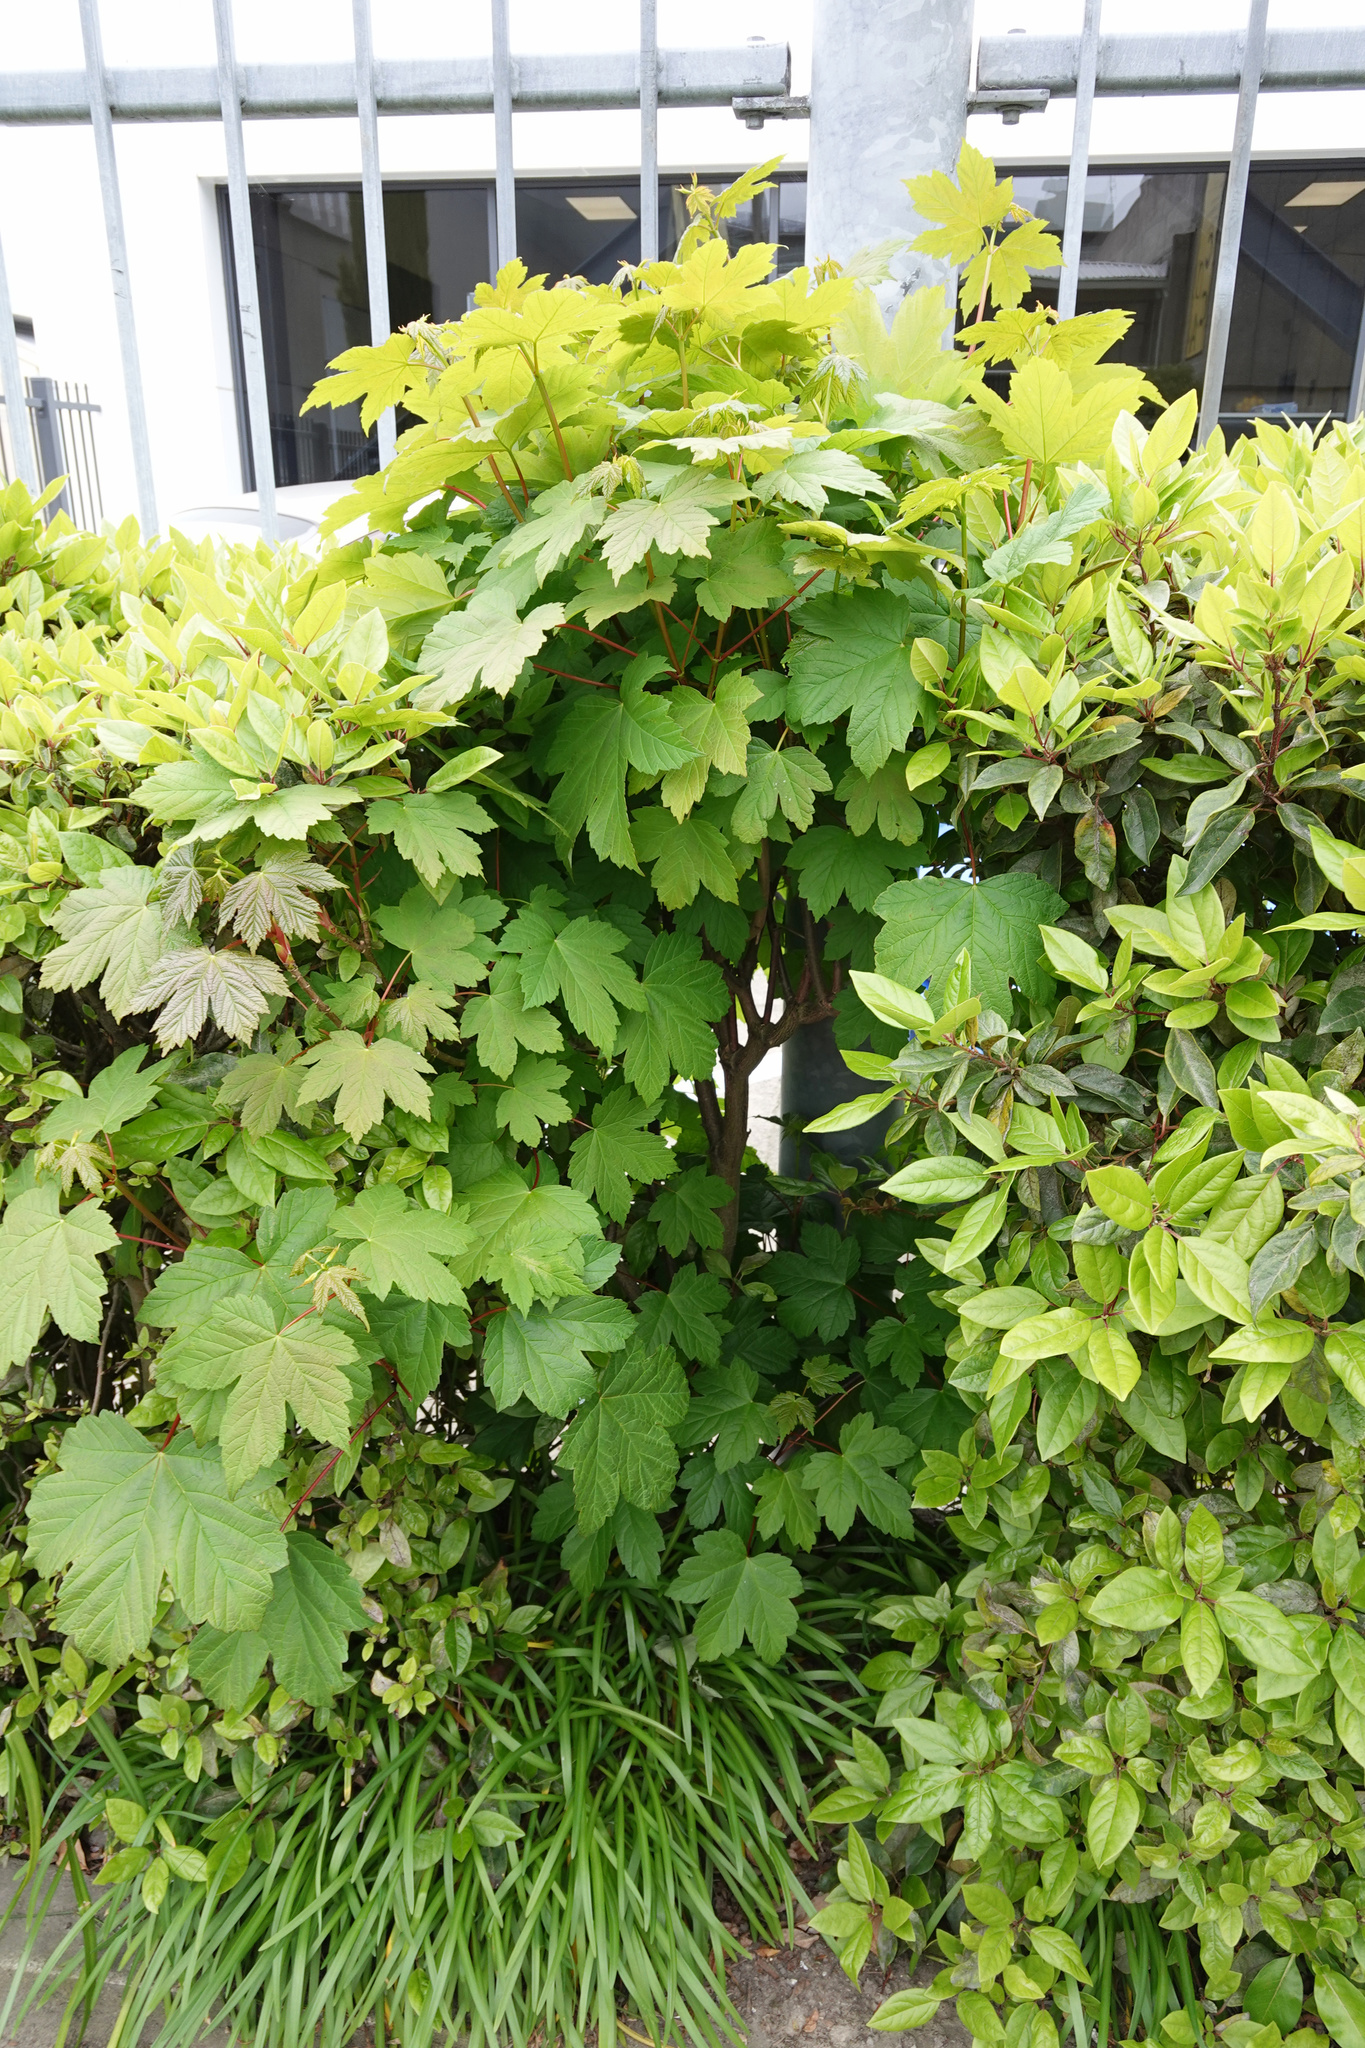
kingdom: Plantae
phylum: Tracheophyta
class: Magnoliopsida
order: Sapindales
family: Sapindaceae
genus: Acer
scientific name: Acer pseudoplatanus
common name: Sycamore
